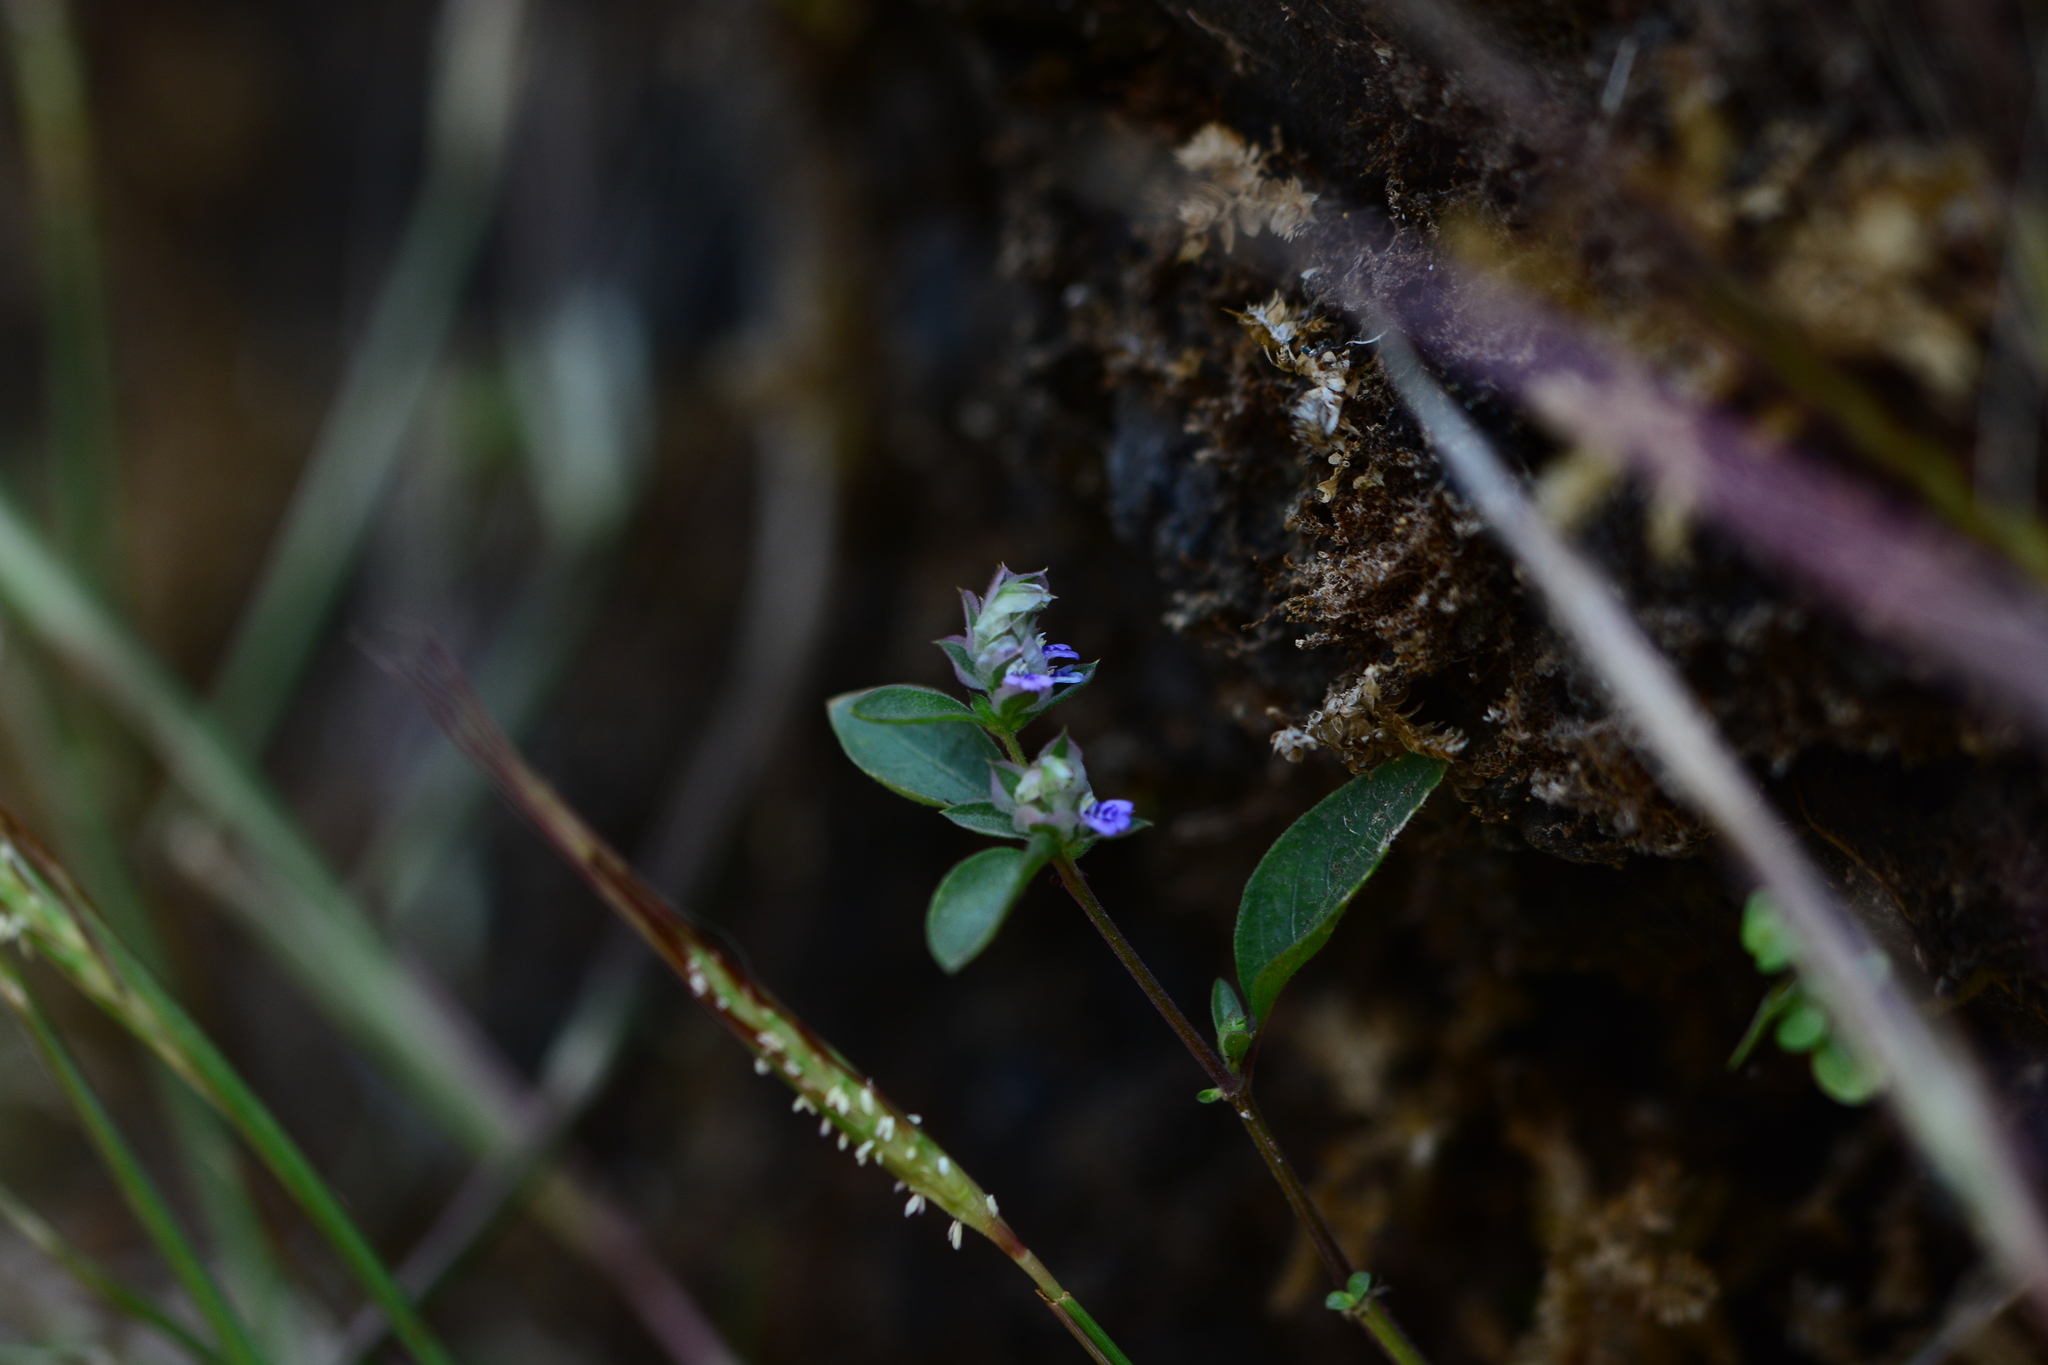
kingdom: Plantae
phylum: Tracheophyta
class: Magnoliopsida
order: Lamiales
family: Acanthaceae
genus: Rungia
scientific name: Rungia pectinata
